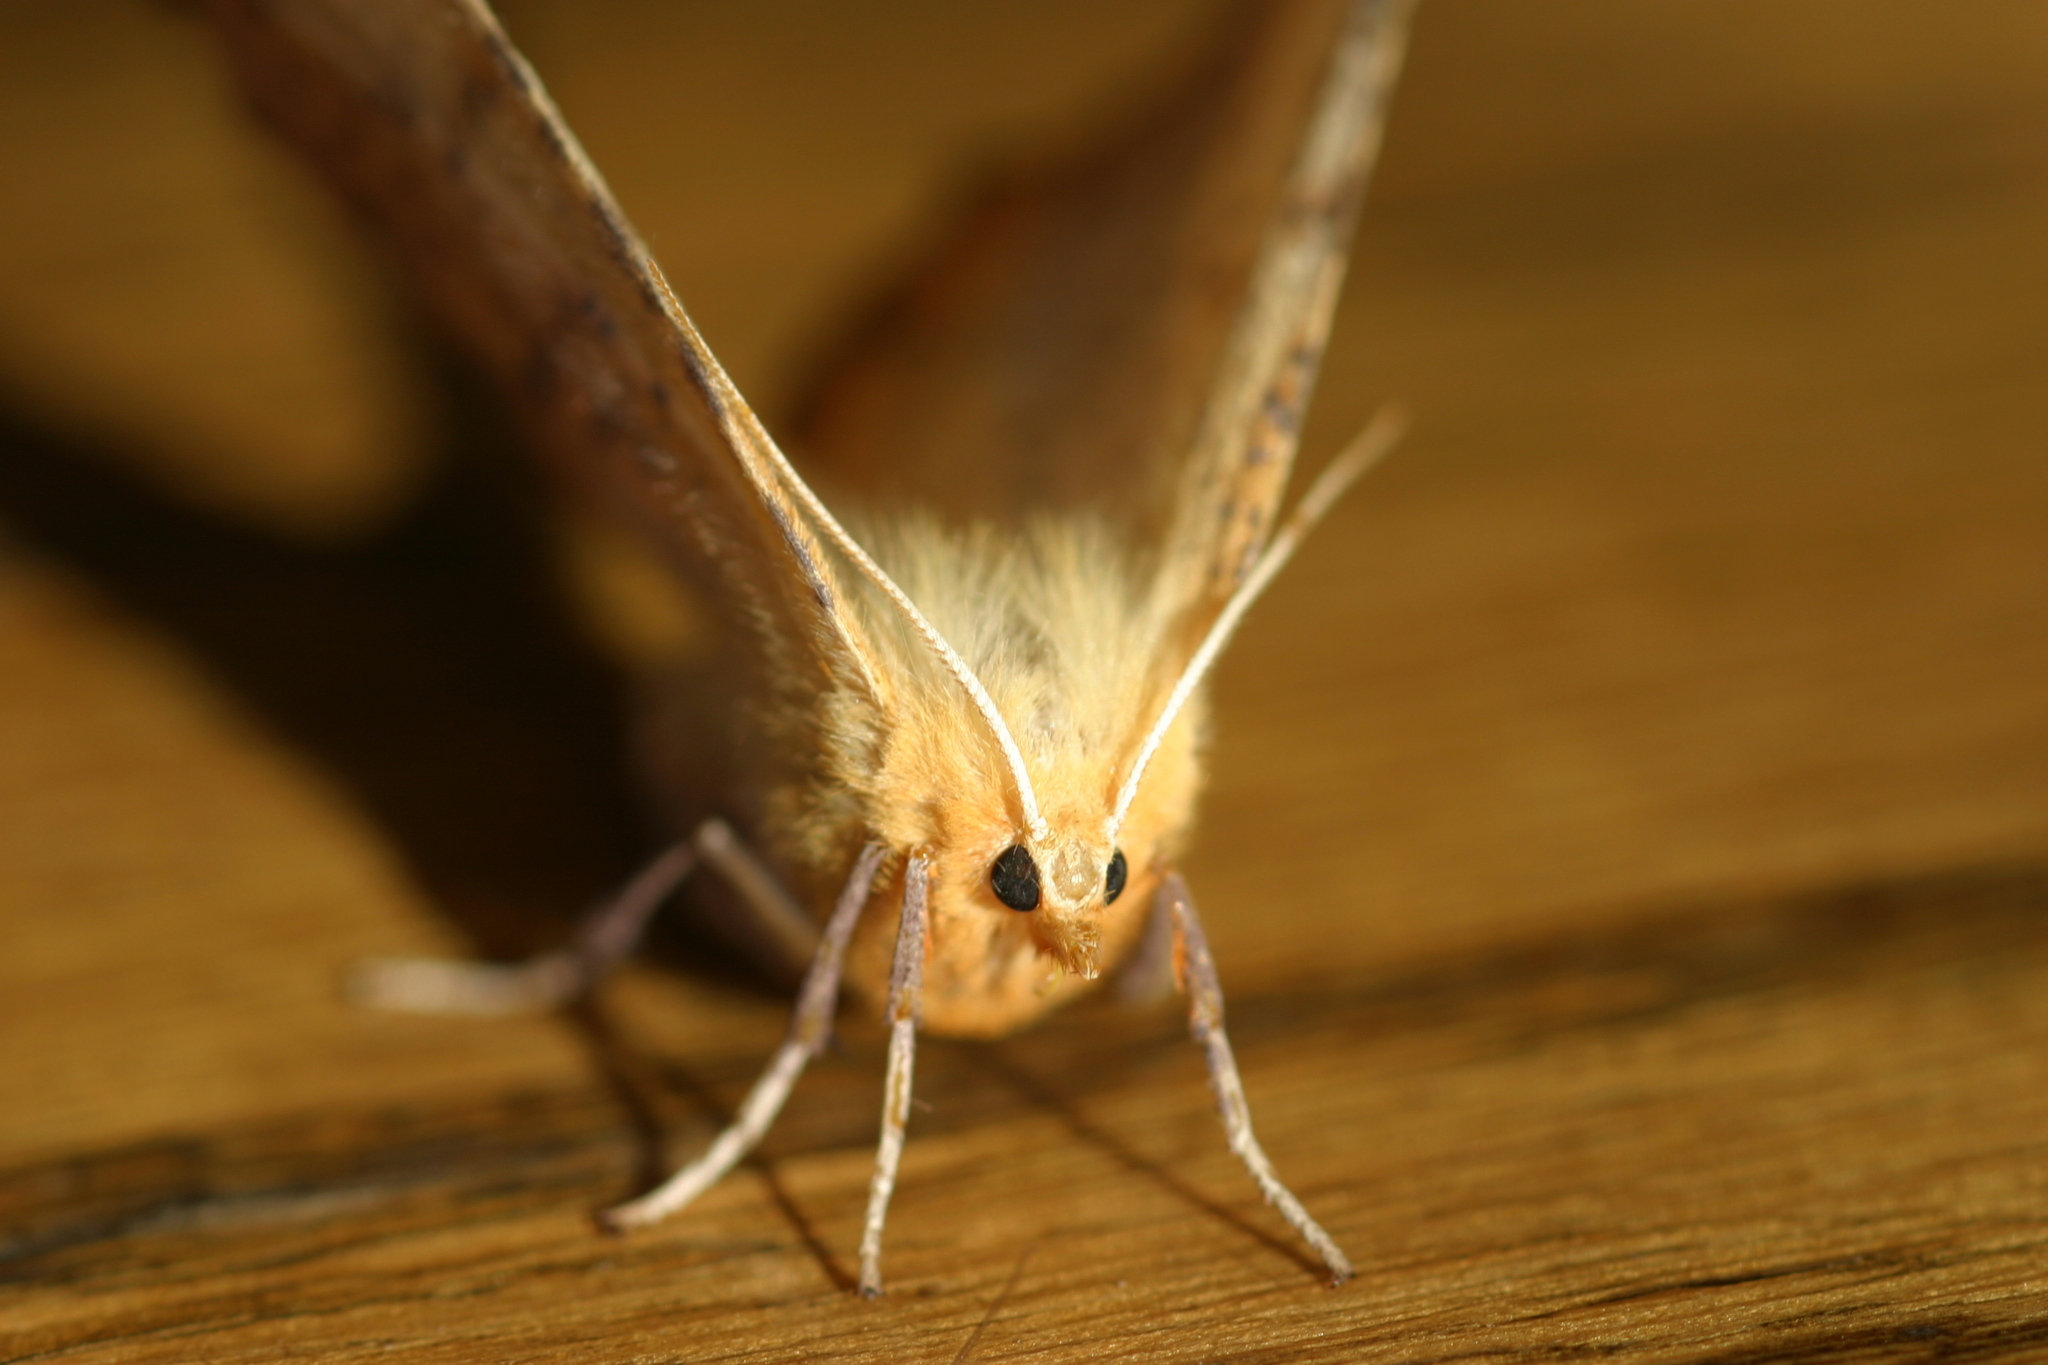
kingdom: Animalia
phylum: Arthropoda
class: Insecta
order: Lepidoptera
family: Geometridae
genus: Ennomos
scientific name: Ennomos autumnaria
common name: Large thorn
